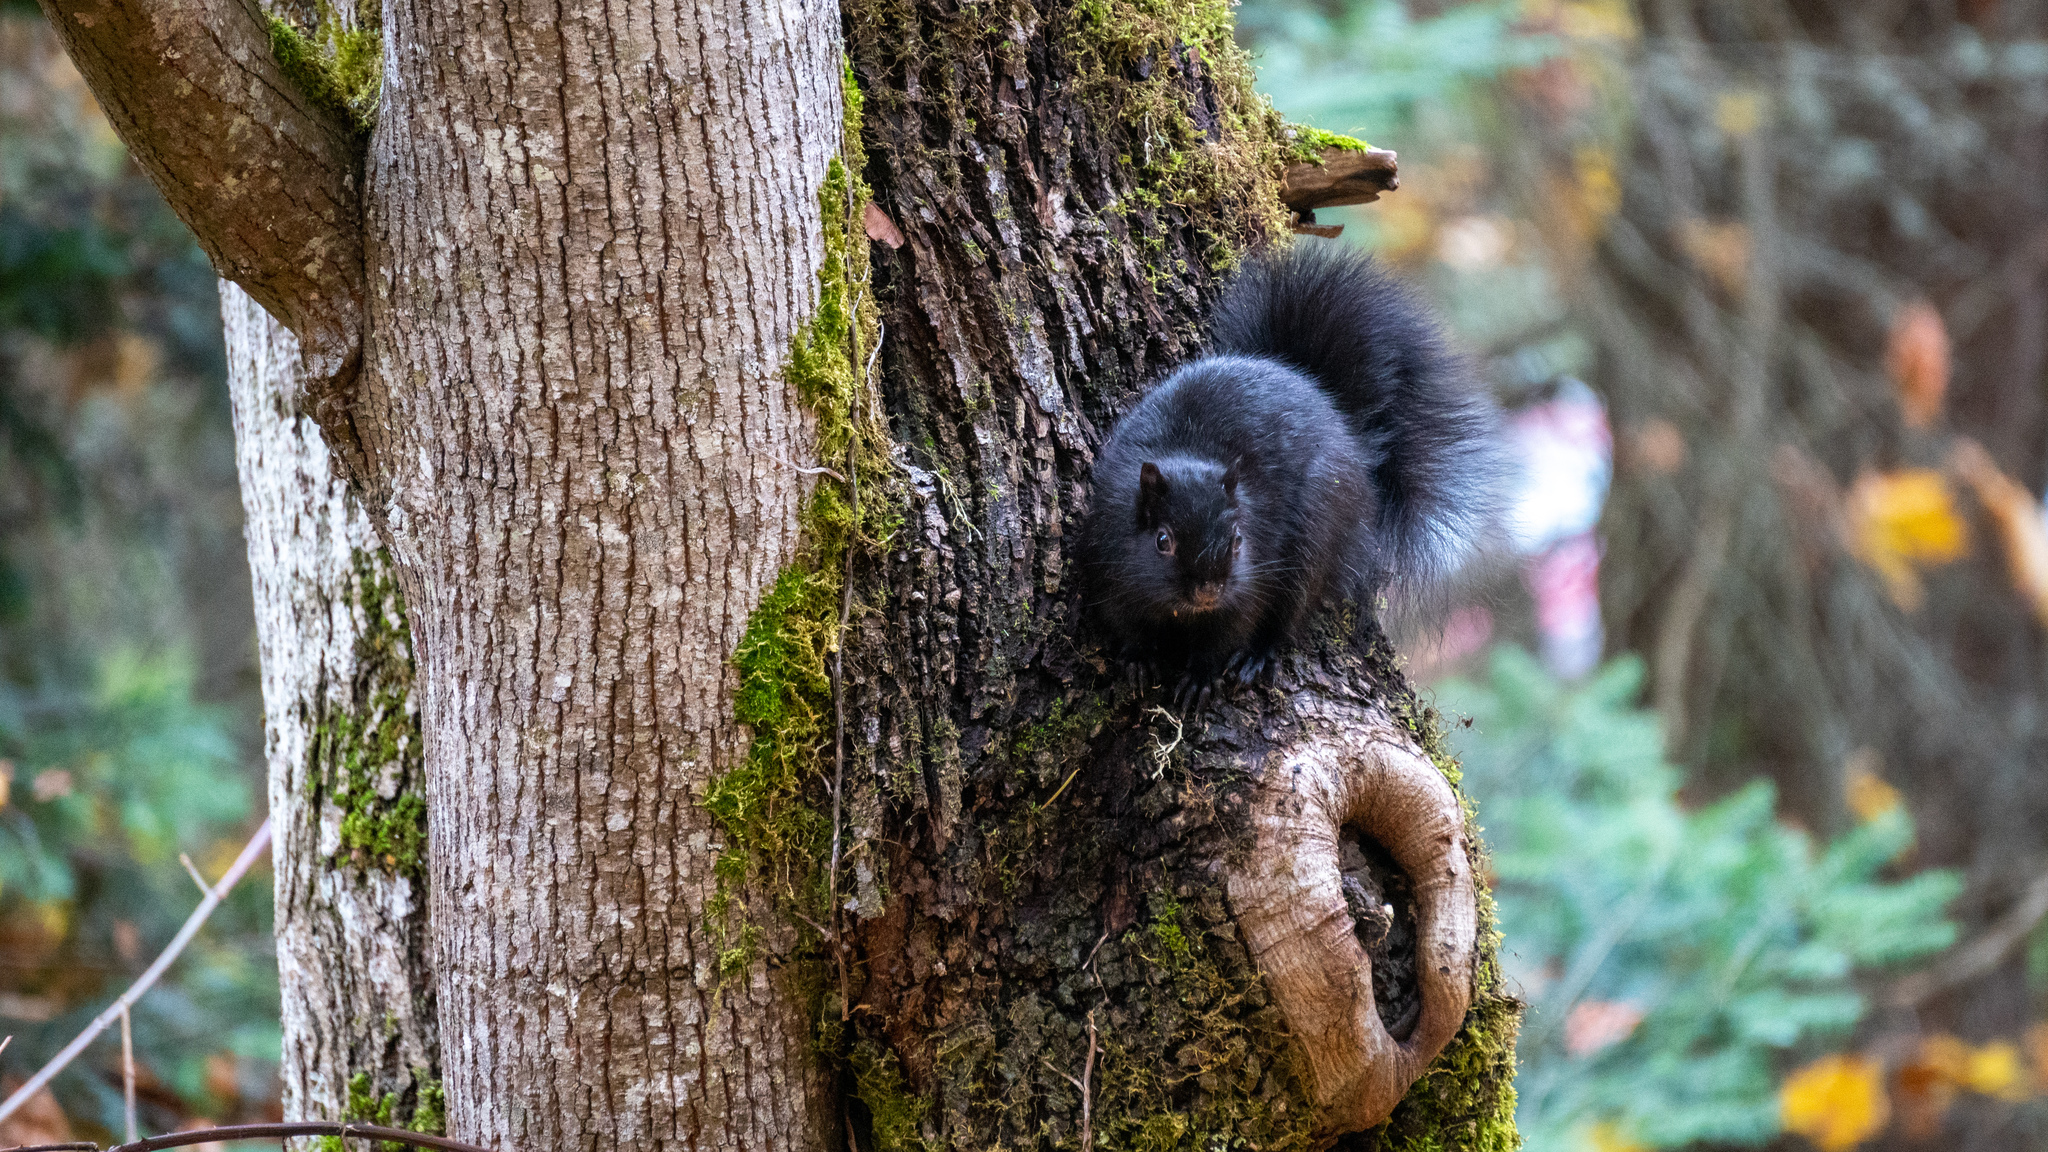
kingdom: Animalia
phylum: Chordata
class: Mammalia
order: Rodentia
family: Sciuridae
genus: Sciurus
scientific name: Sciurus carolinensis
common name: Eastern gray squirrel
